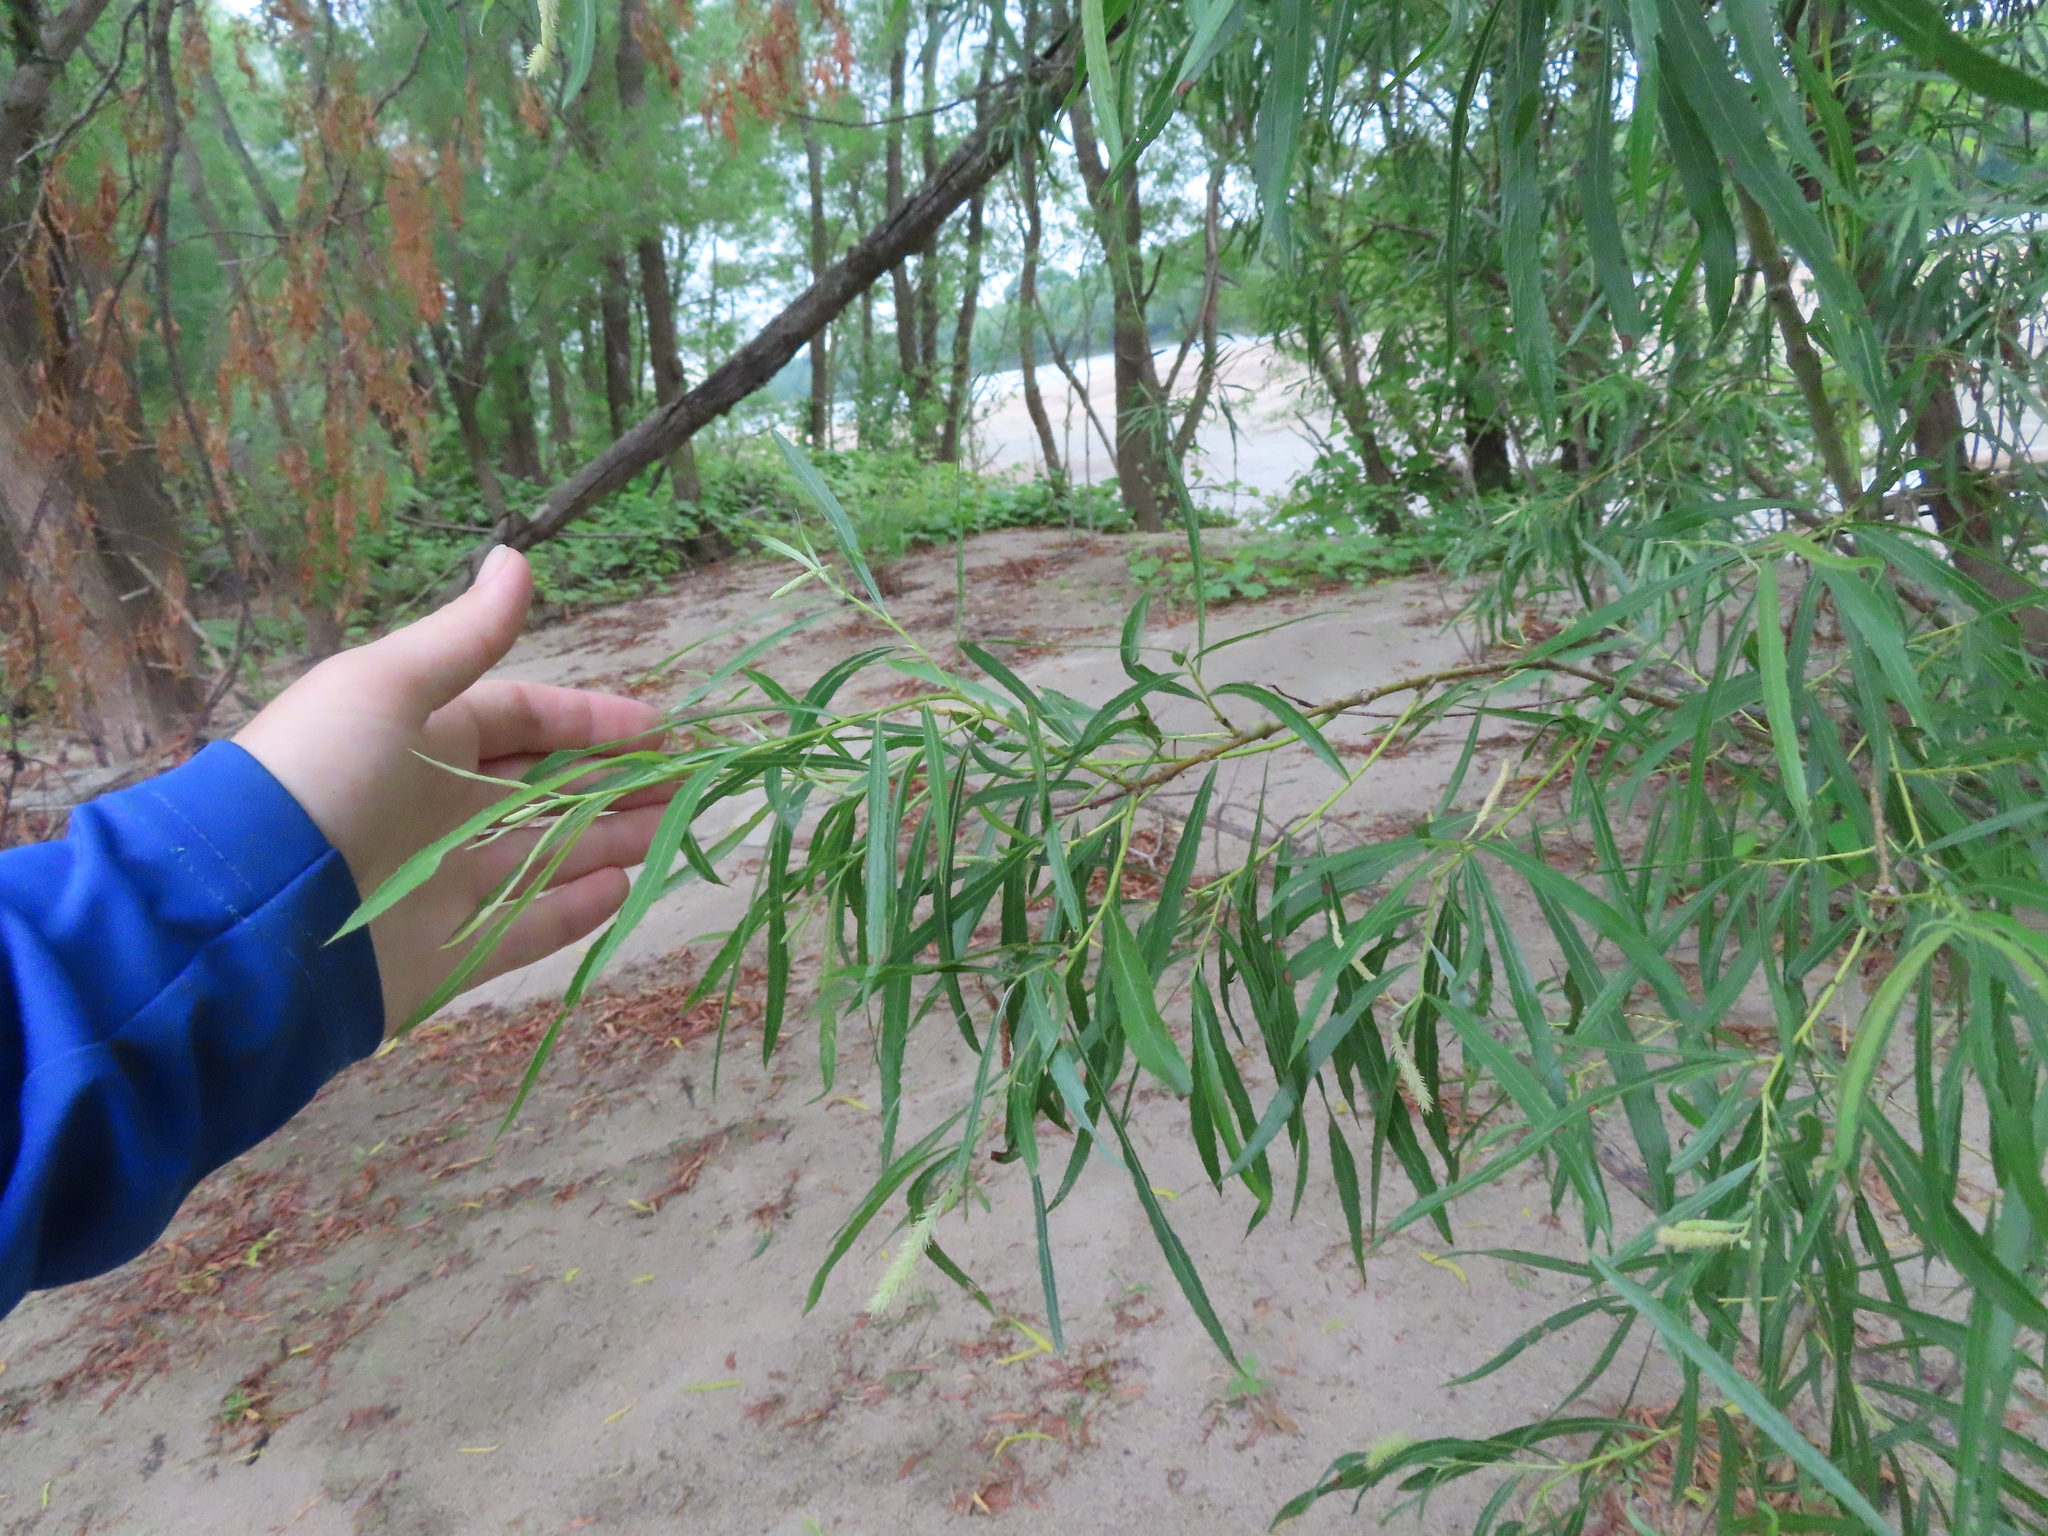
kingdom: Plantae
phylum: Tracheophyta
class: Magnoliopsida
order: Malpighiales
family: Salicaceae
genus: Salix
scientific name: Salix interior
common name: Sandbar willow
